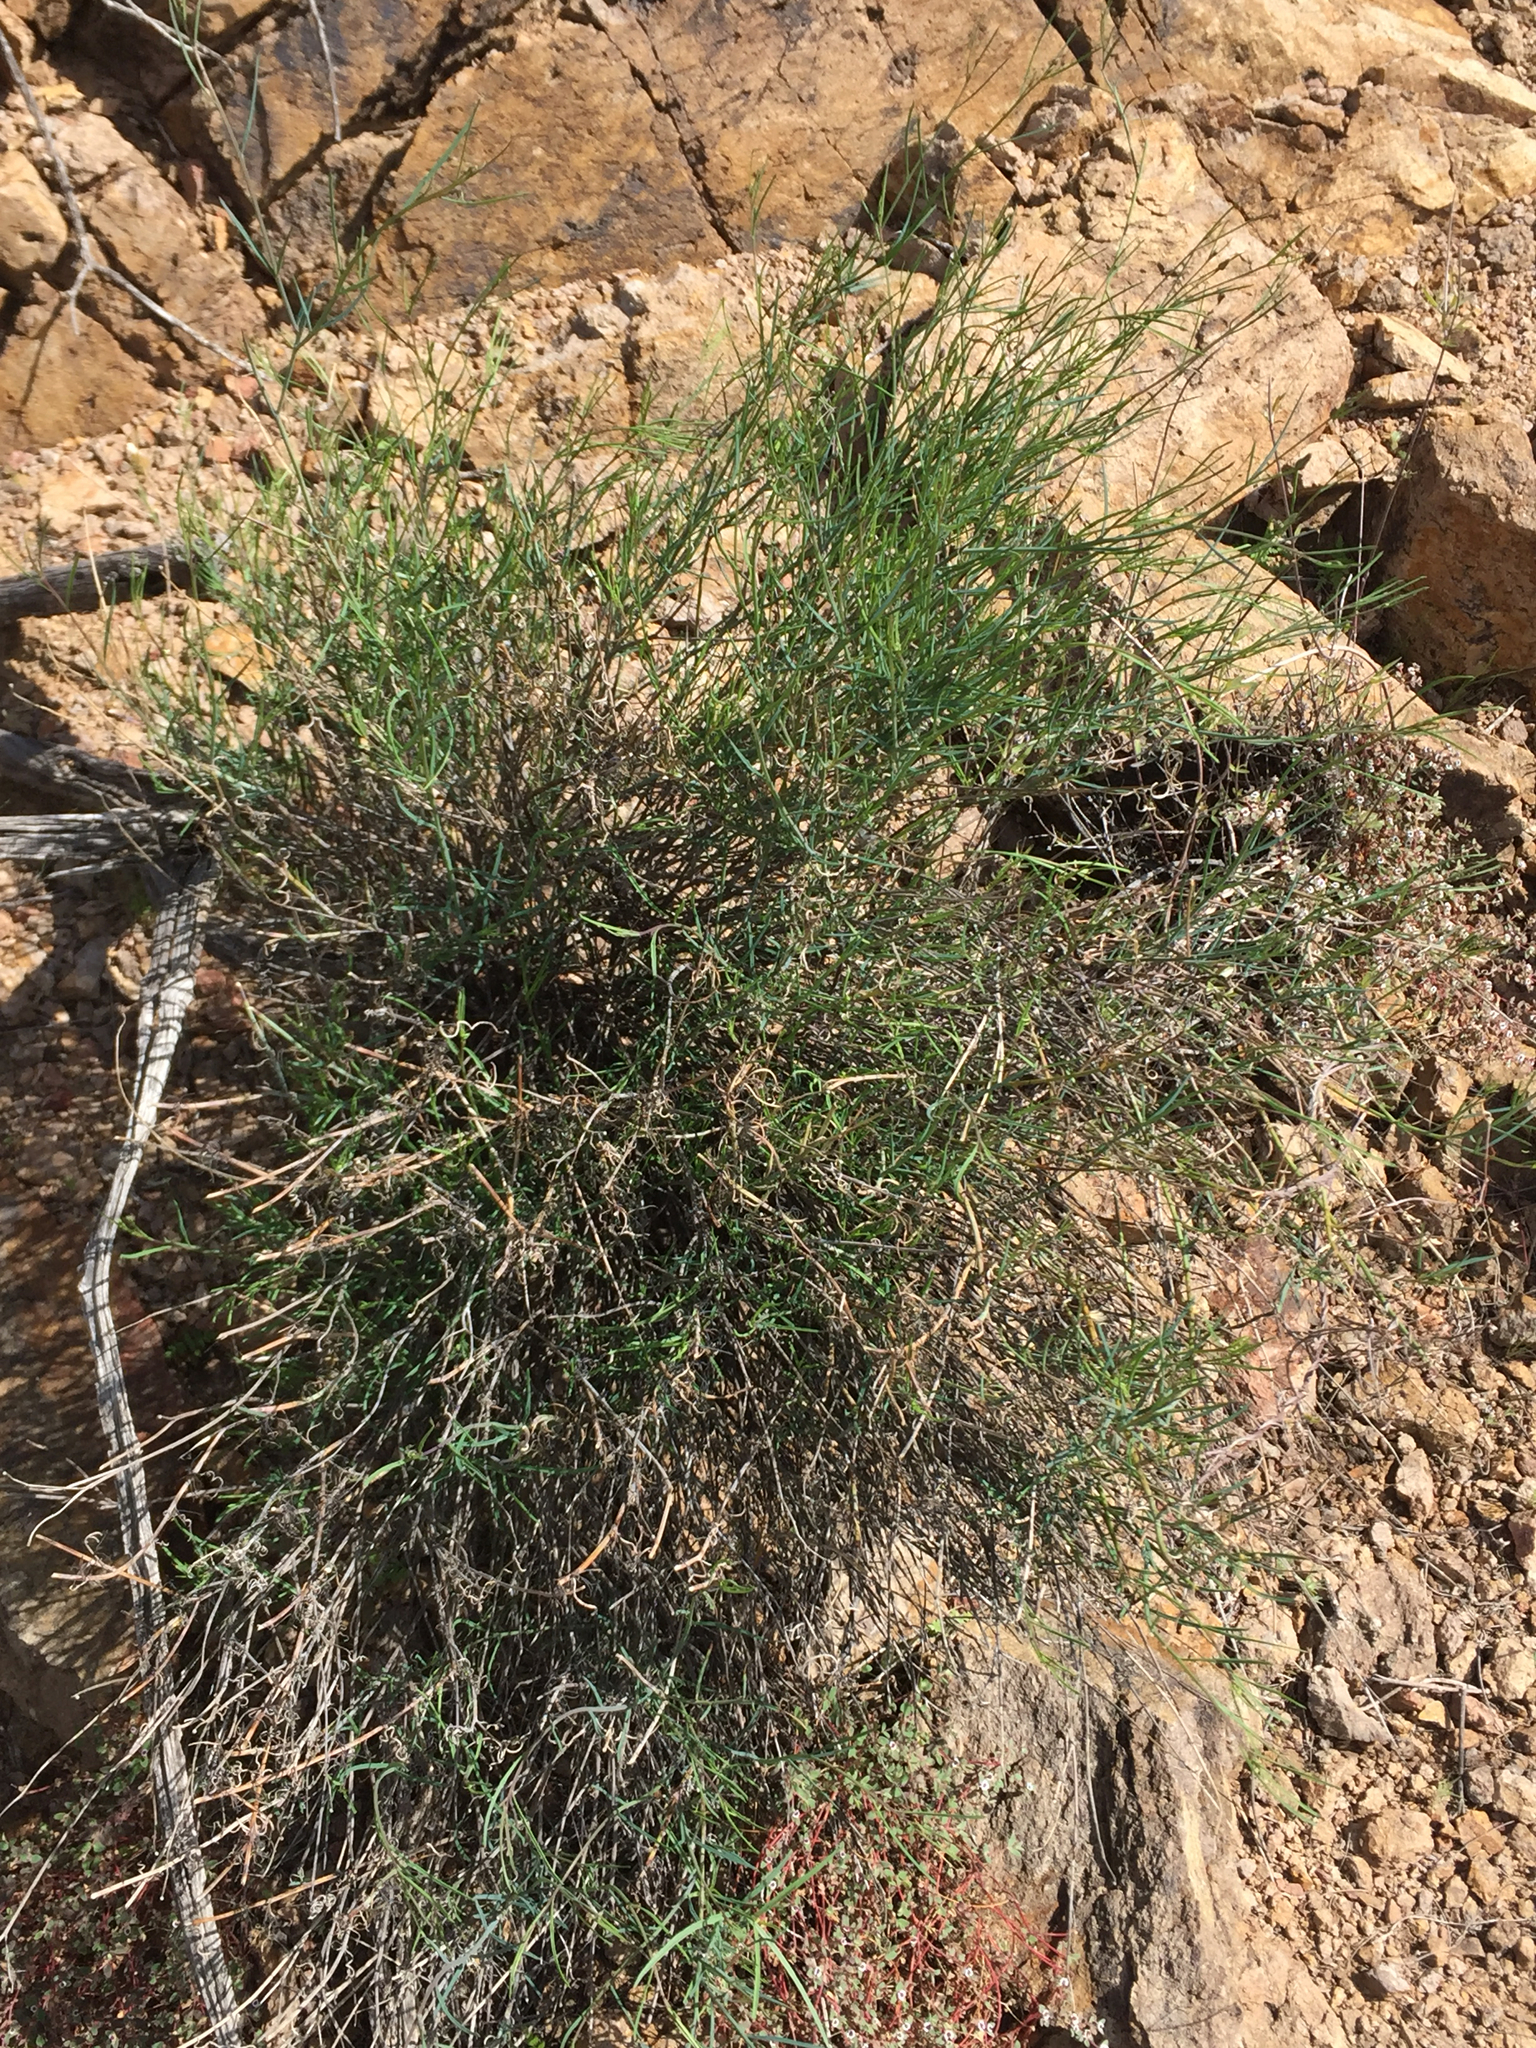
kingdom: Plantae
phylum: Tracheophyta
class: Magnoliopsida
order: Asterales
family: Asteraceae
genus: Porophyllum
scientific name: Porophyllum gracile
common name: Odora
